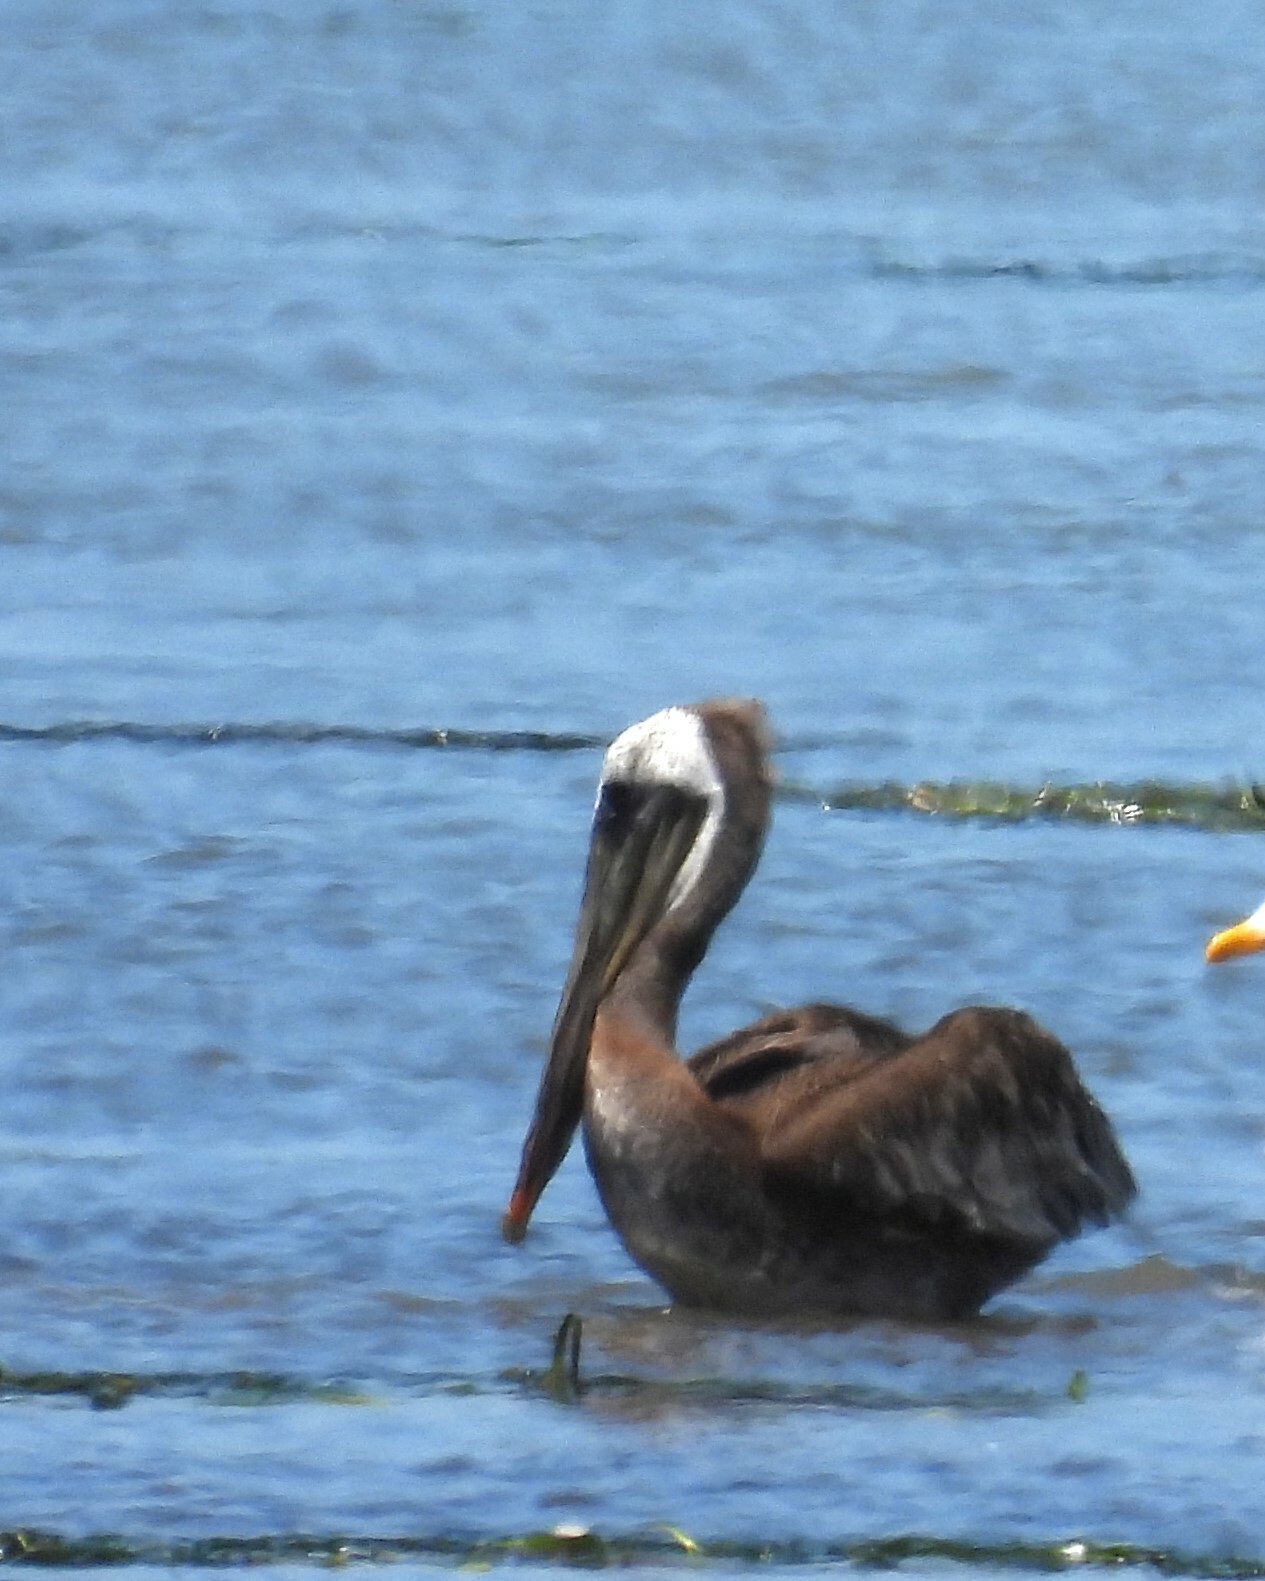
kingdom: Animalia
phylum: Chordata
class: Aves
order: Pelecaniformes
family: Pelecanidae
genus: Pelecanus
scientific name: Pelecanus occidentalis
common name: Brown pelican
